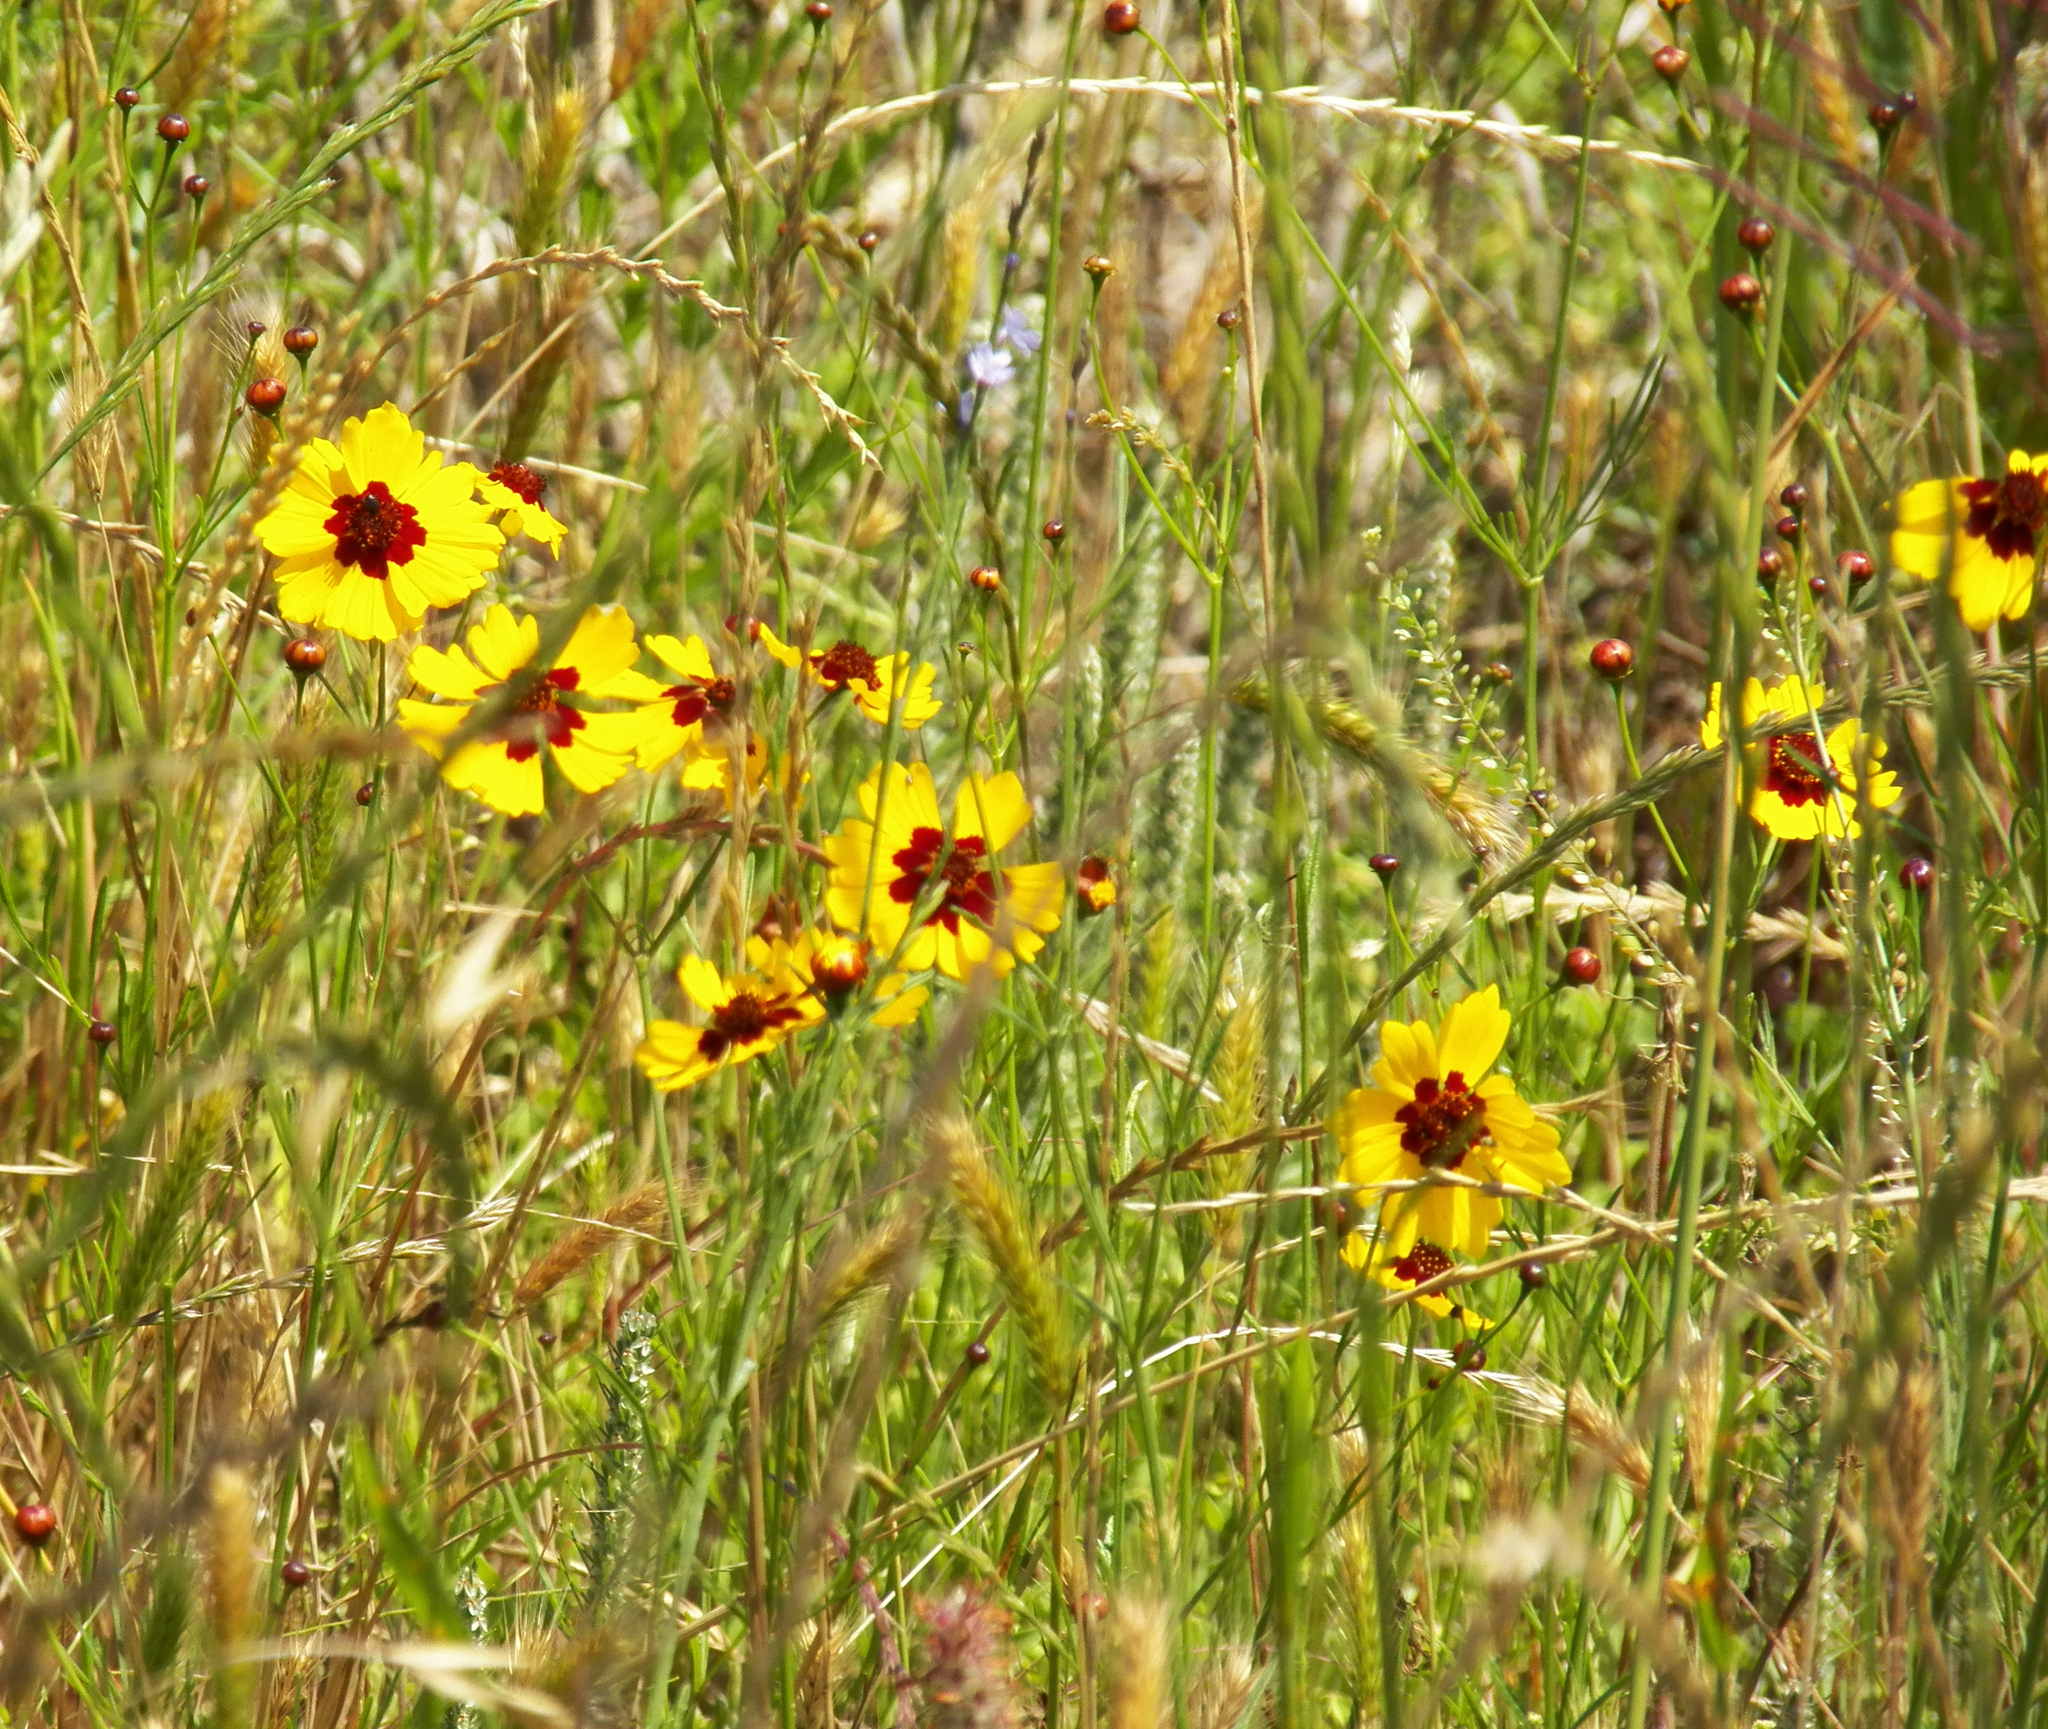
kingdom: Plantae
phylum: Tracheophyta
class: Magnoliopsida
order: Asterales
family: Asteraceae
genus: Coreopsis
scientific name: Coreopsis tinctoria
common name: Garden tickseed
